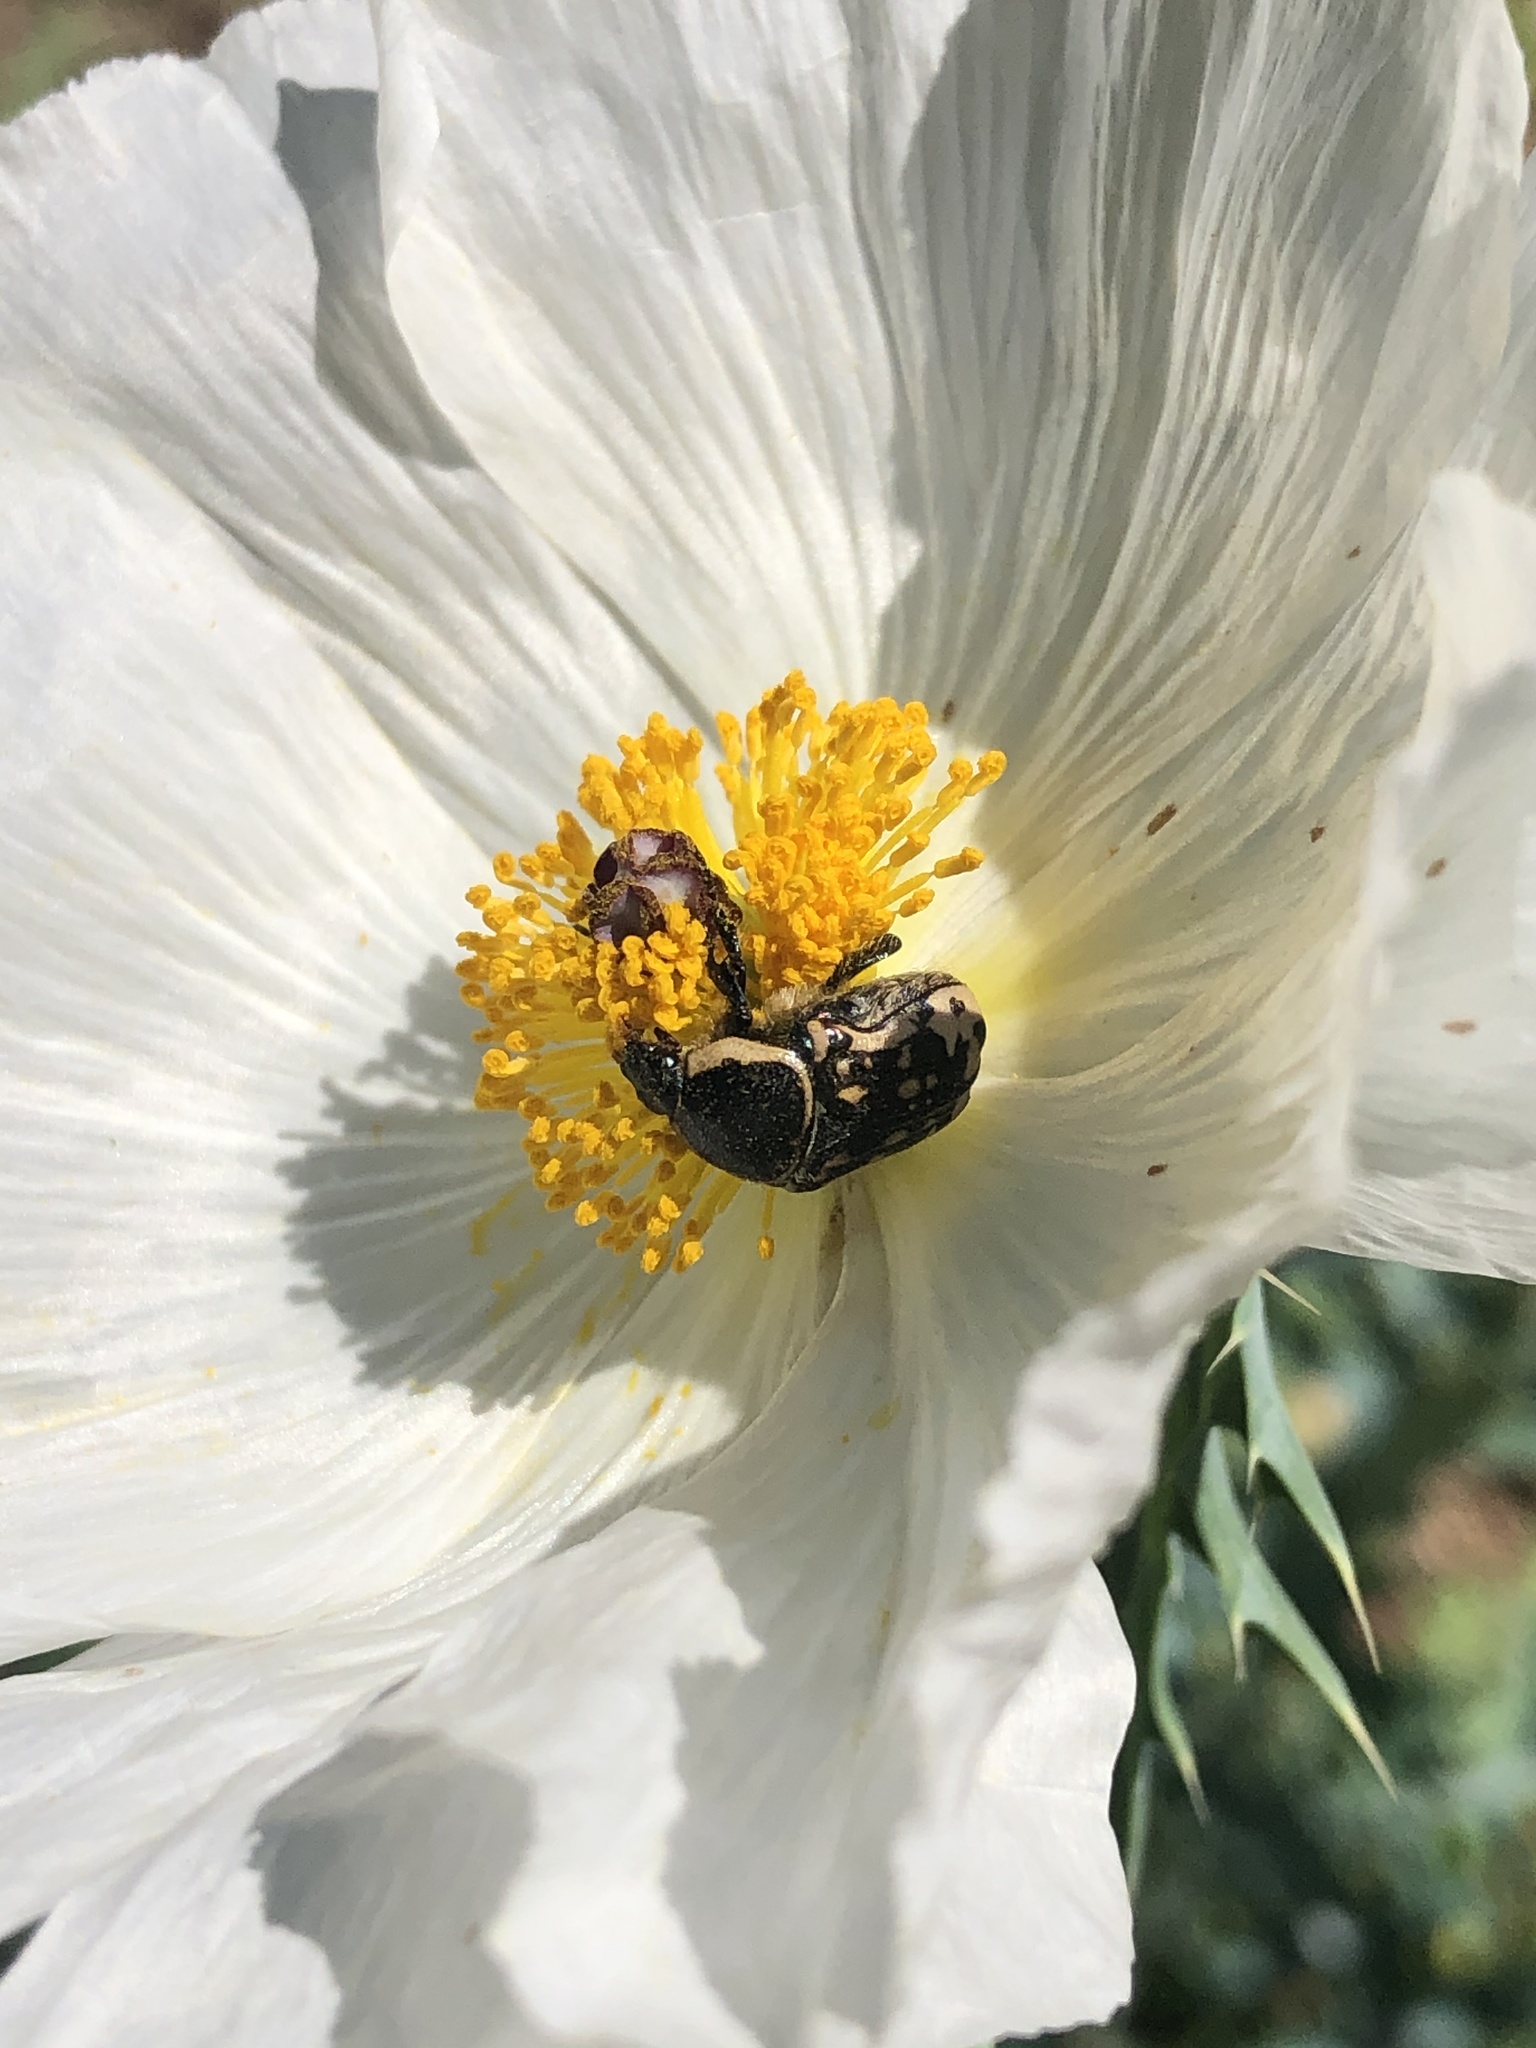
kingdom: Animalia
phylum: Arthropoda
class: Insecta
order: Coleoptera
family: Scarabaeidae
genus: Euphoria
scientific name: Euphoria kernii
